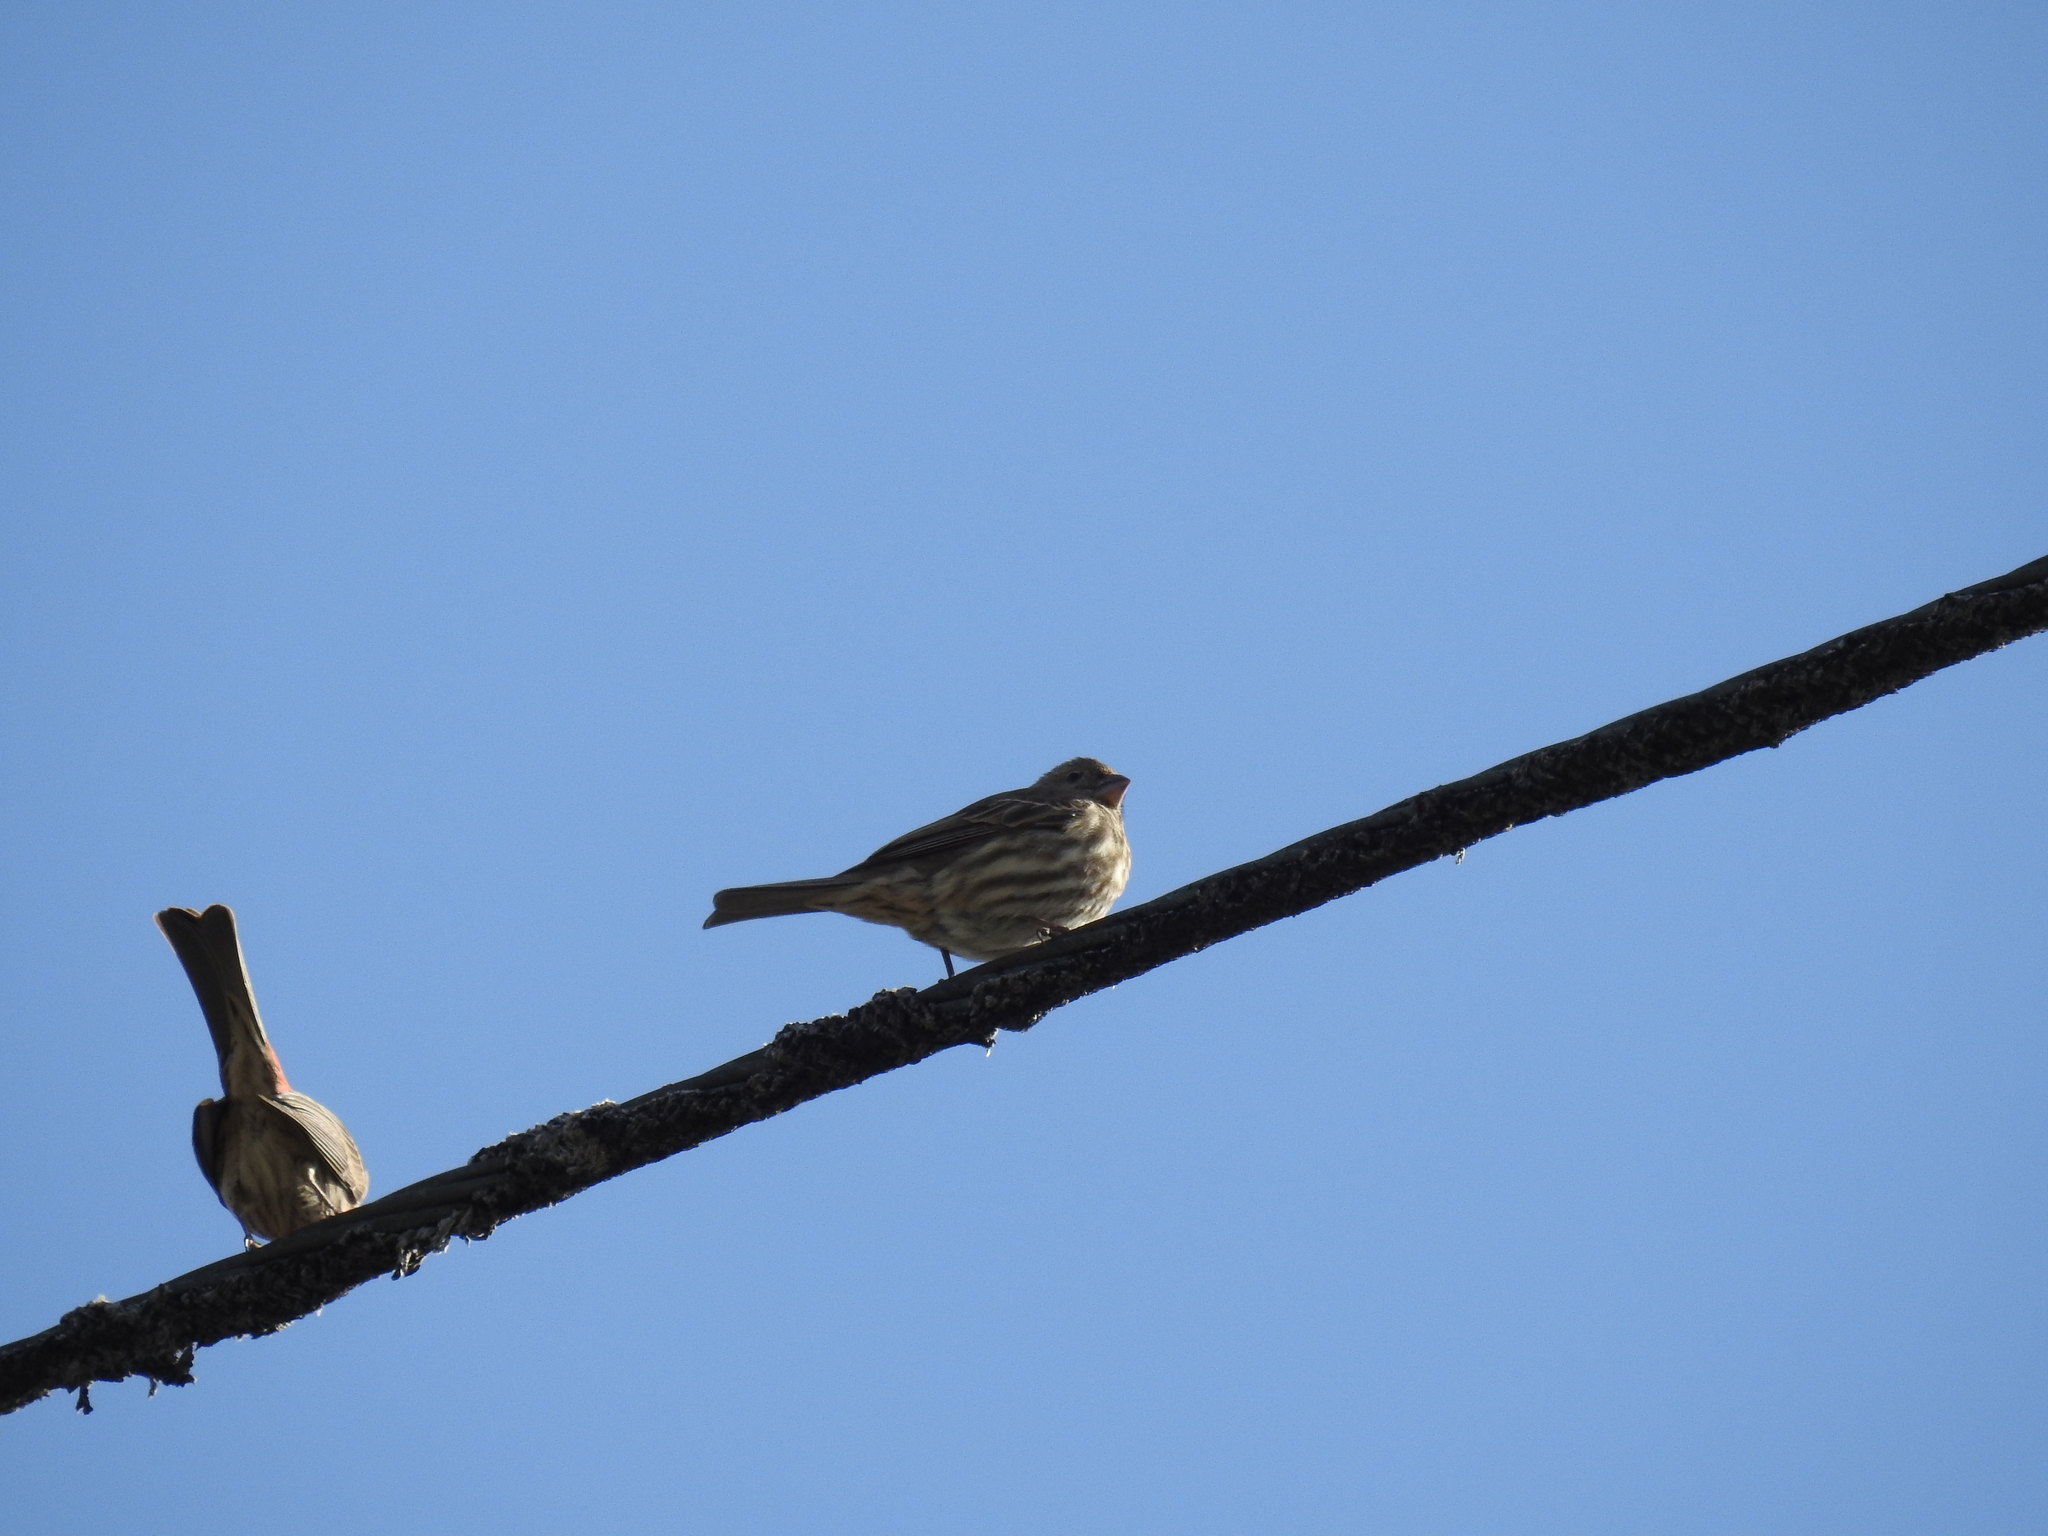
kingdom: Animalia
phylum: Chordata
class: Aves
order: Passeriformes
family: Fringillidae
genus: Haemorhous
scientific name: Haemorhous mexicanus
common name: House finch
